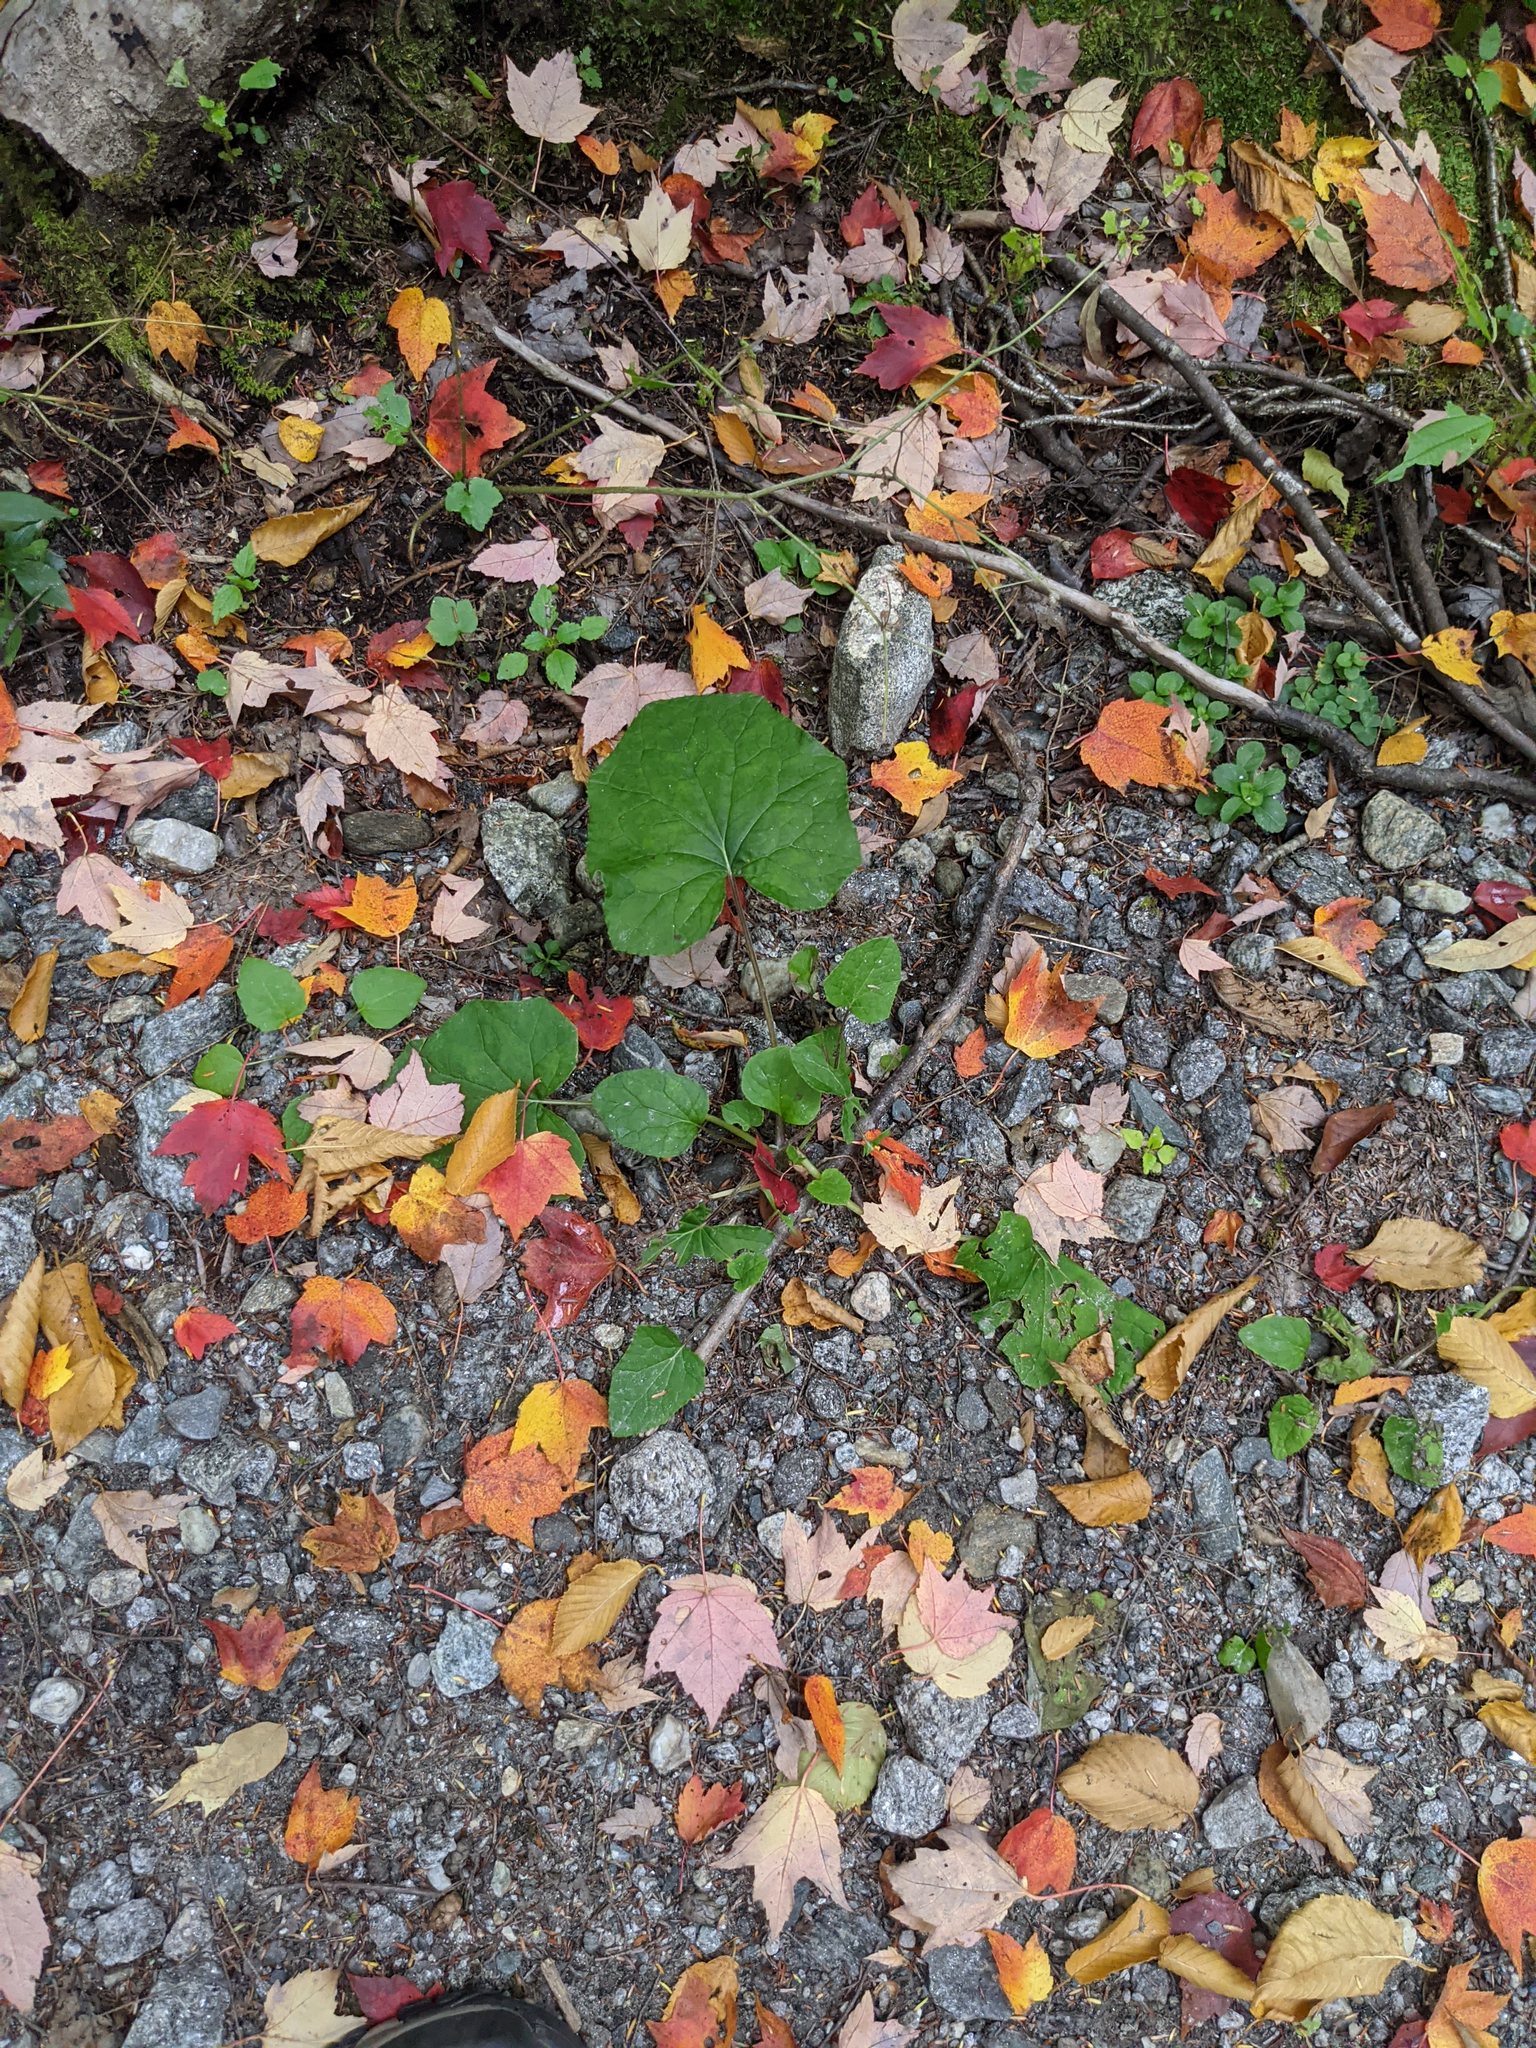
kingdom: Plantae
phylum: Tracheophyta
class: Magnoliopsida
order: Asterales
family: Asteraceae
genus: Tussilago
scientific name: Tussilago farfara
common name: Coltsfoot
